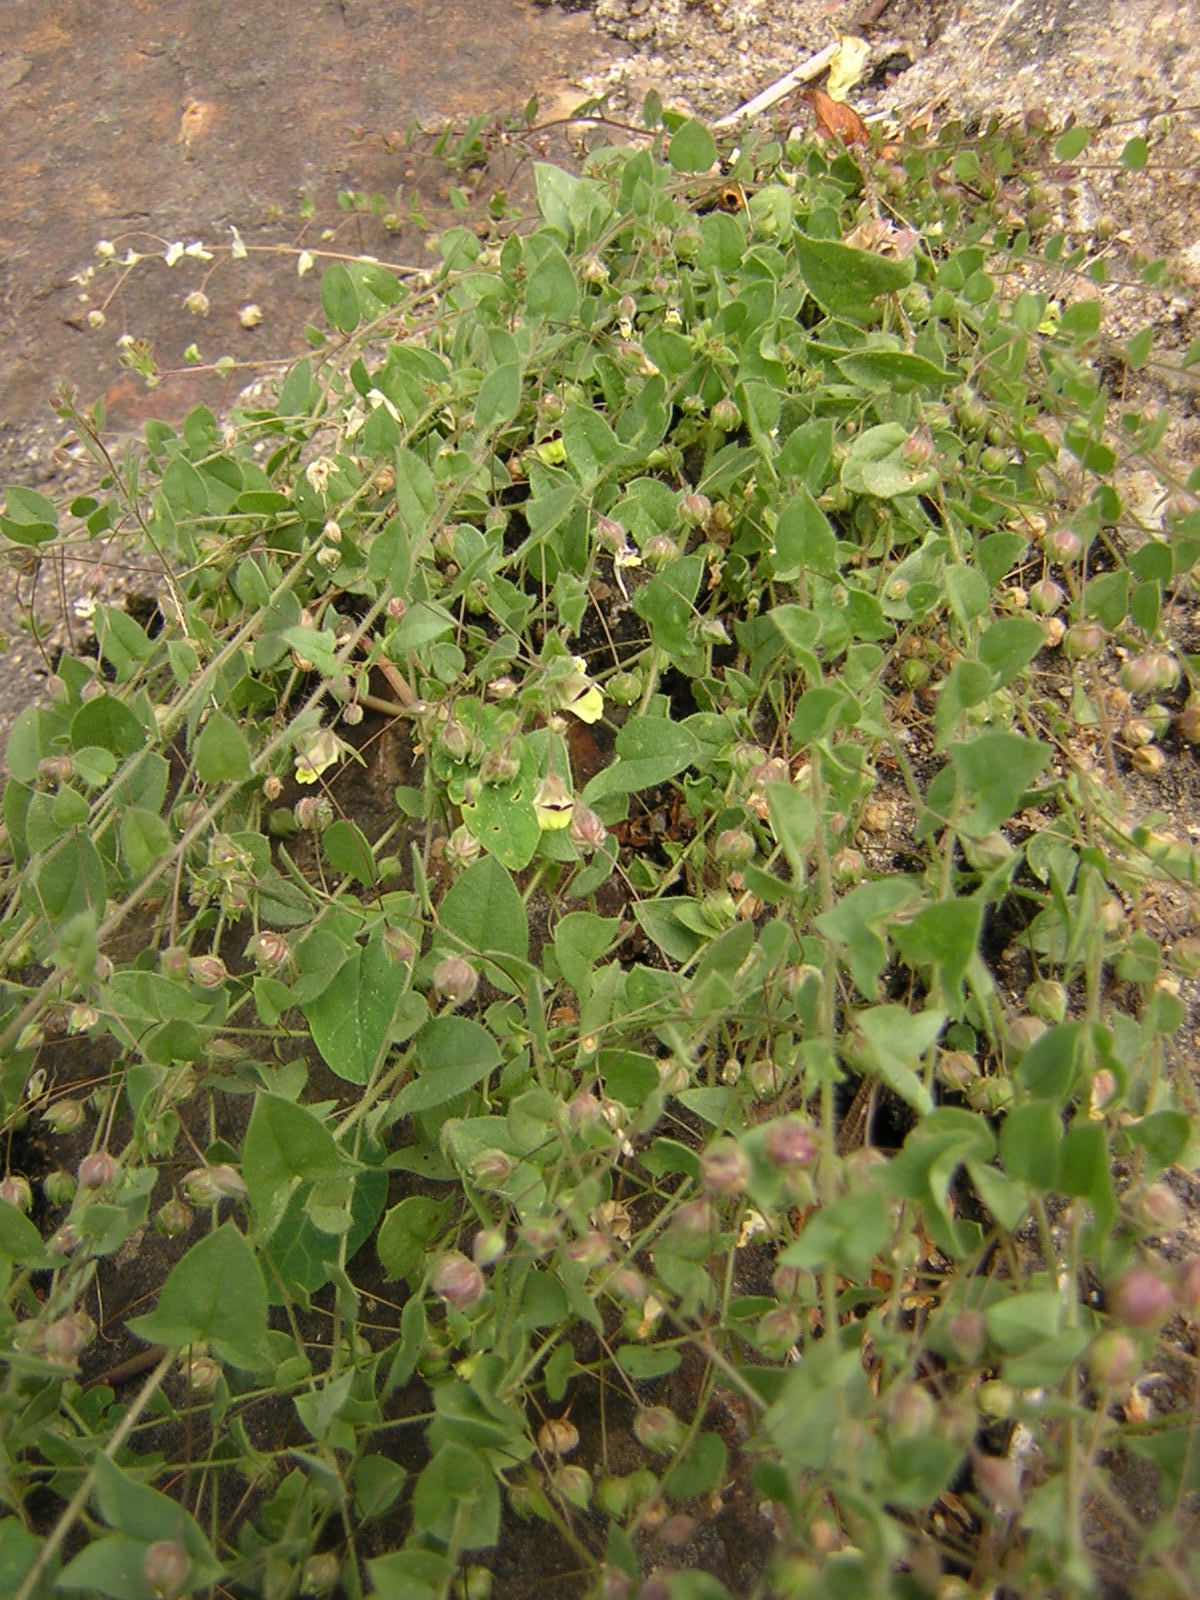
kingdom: Plantae
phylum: Tracheophyta
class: Magnoliopsida
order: Lamiales
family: Plantaginaceae
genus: Kickxia
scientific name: Kickxia elatine
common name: Sharp-leaved fluellen
